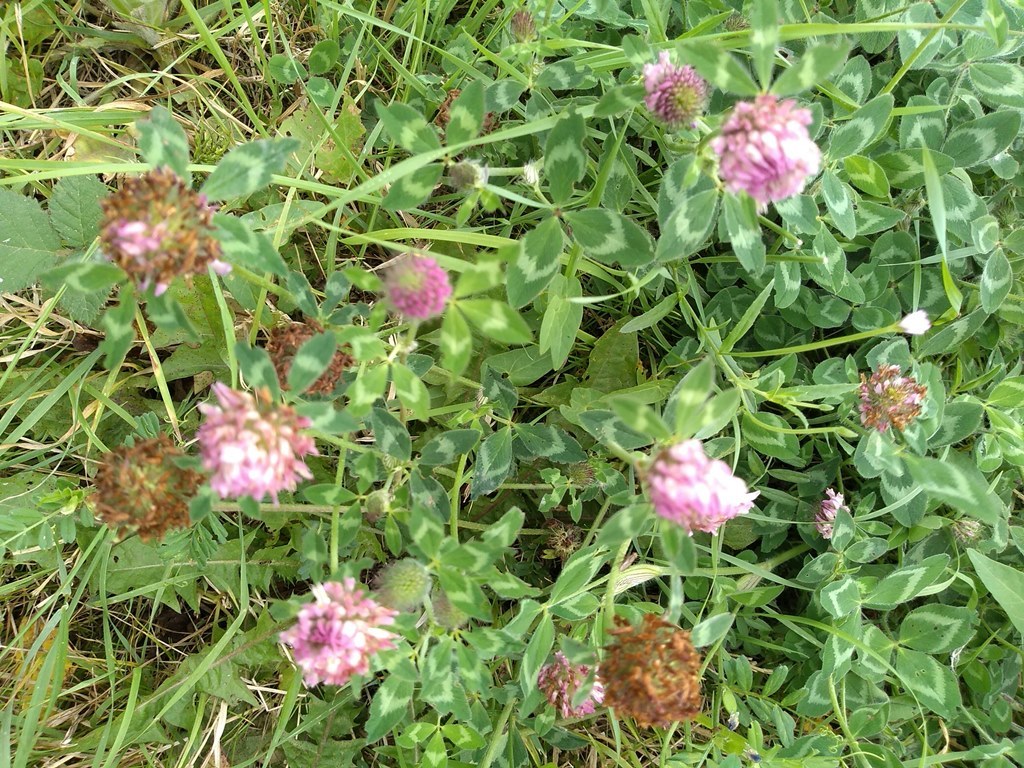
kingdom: Plantae
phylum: Tracheophyta
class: Magnoliopsida
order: Fabales
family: Fabaceae
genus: Trifolium
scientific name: Trifolium pratense
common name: Red clover
